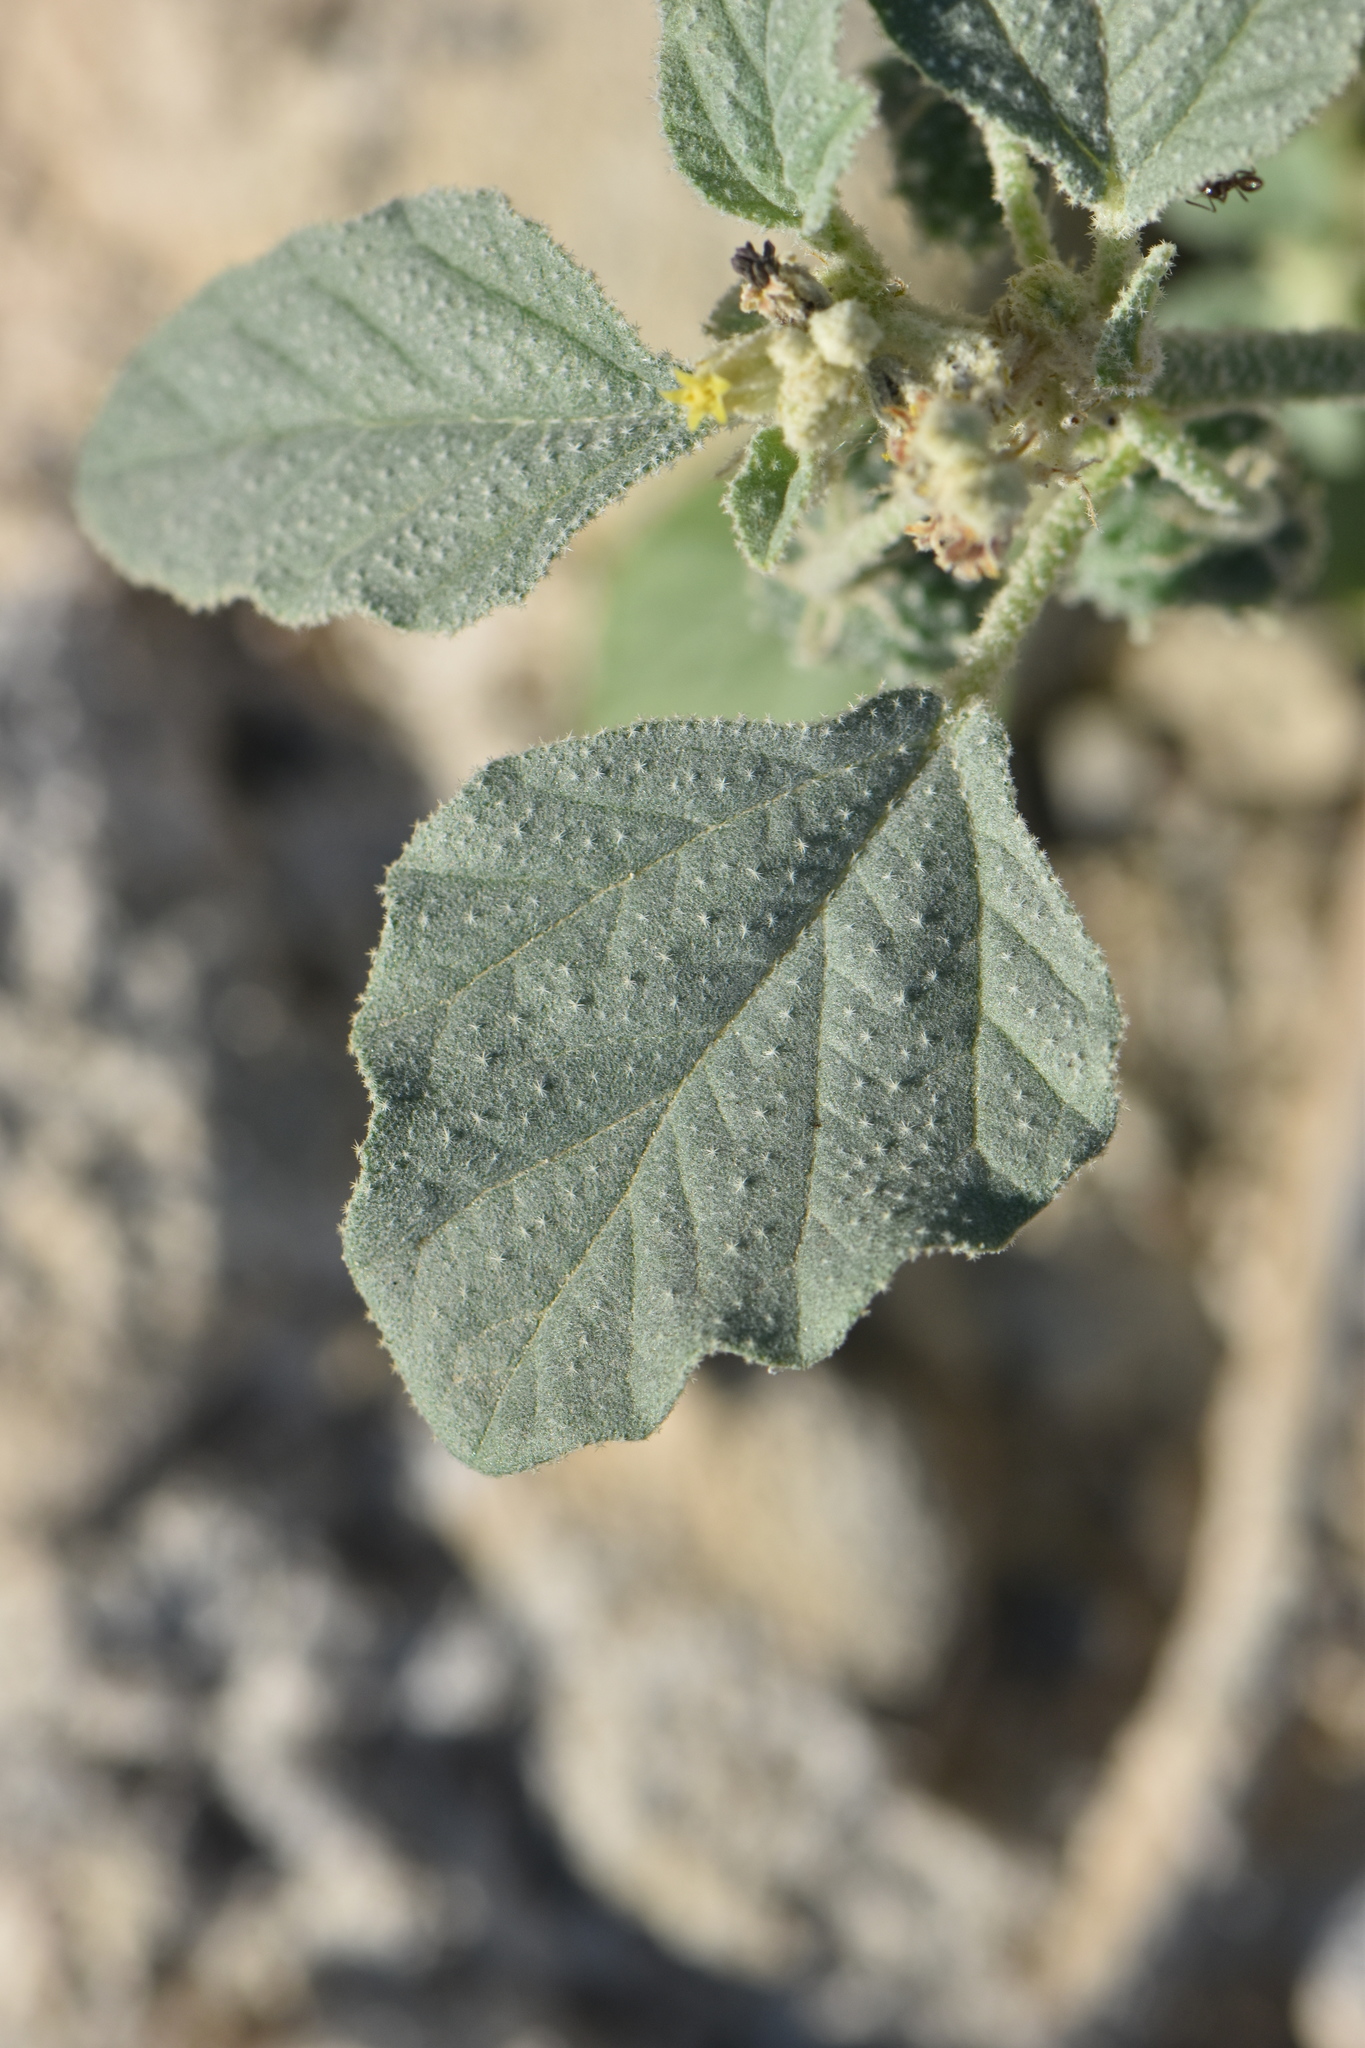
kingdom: Plantae
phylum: Tracheophyta
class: Magnoliopsida
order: Malpighiales
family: Euphorbiaceae
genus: Chrozophora
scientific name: Chrozophora tinctoria
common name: Dyer's litmus
